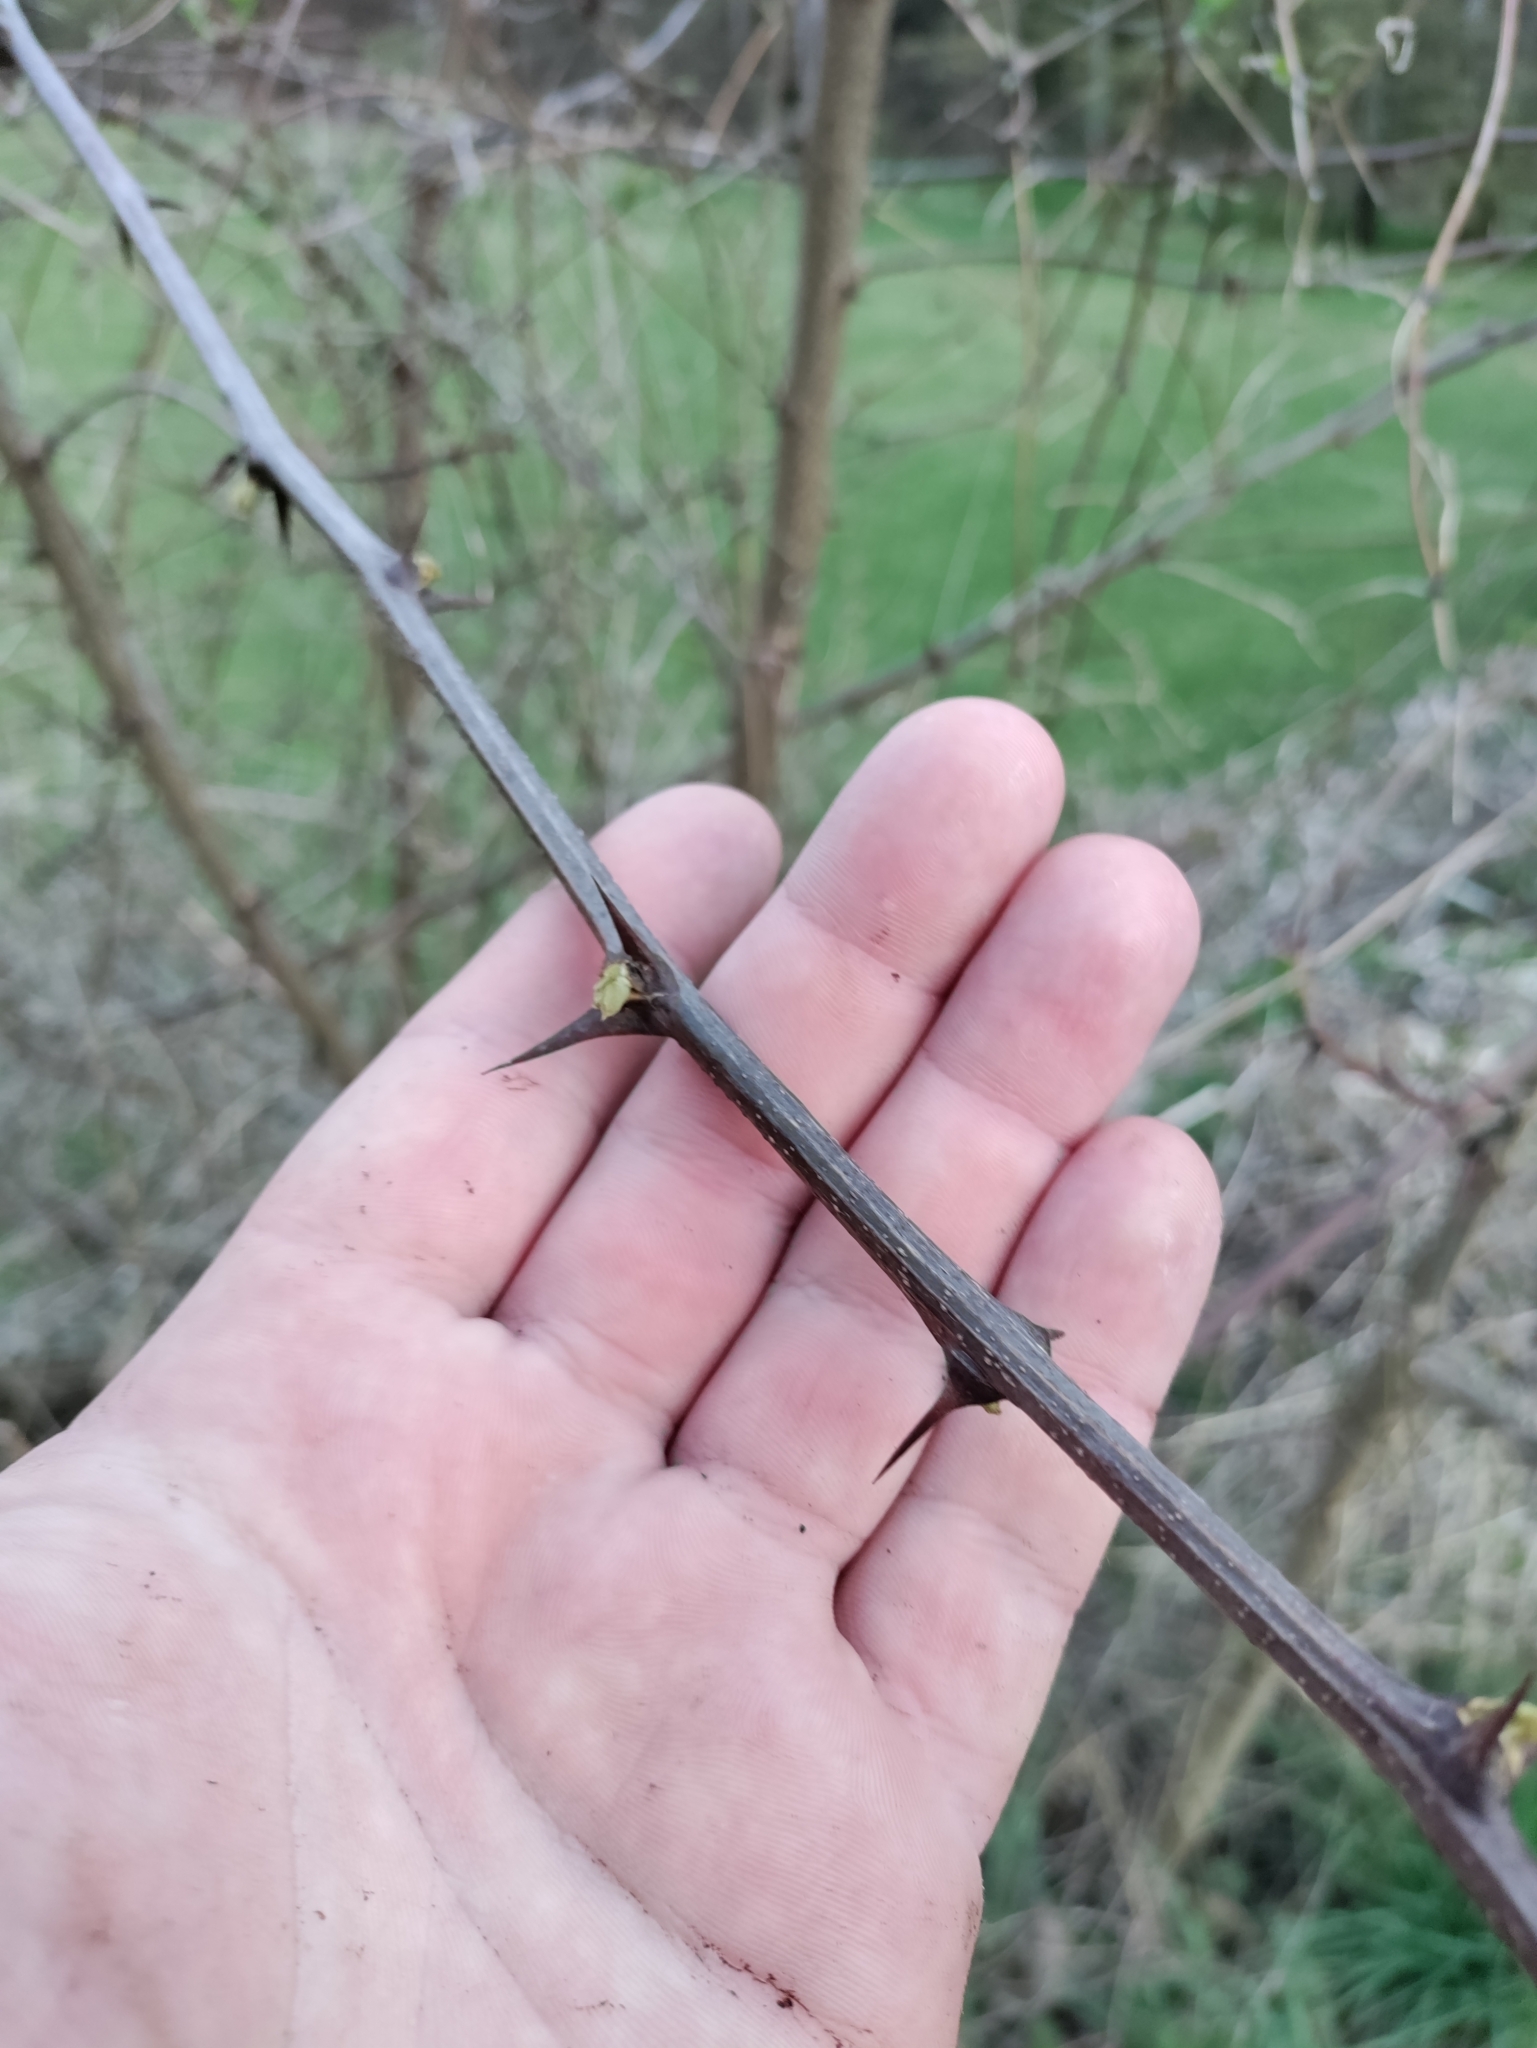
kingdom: Plantae
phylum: Tracheophyta
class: Magnoliopsida
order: Fabales
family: Fabaceae
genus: Robinia
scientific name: Robinia pseudoacacia
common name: Black locust
